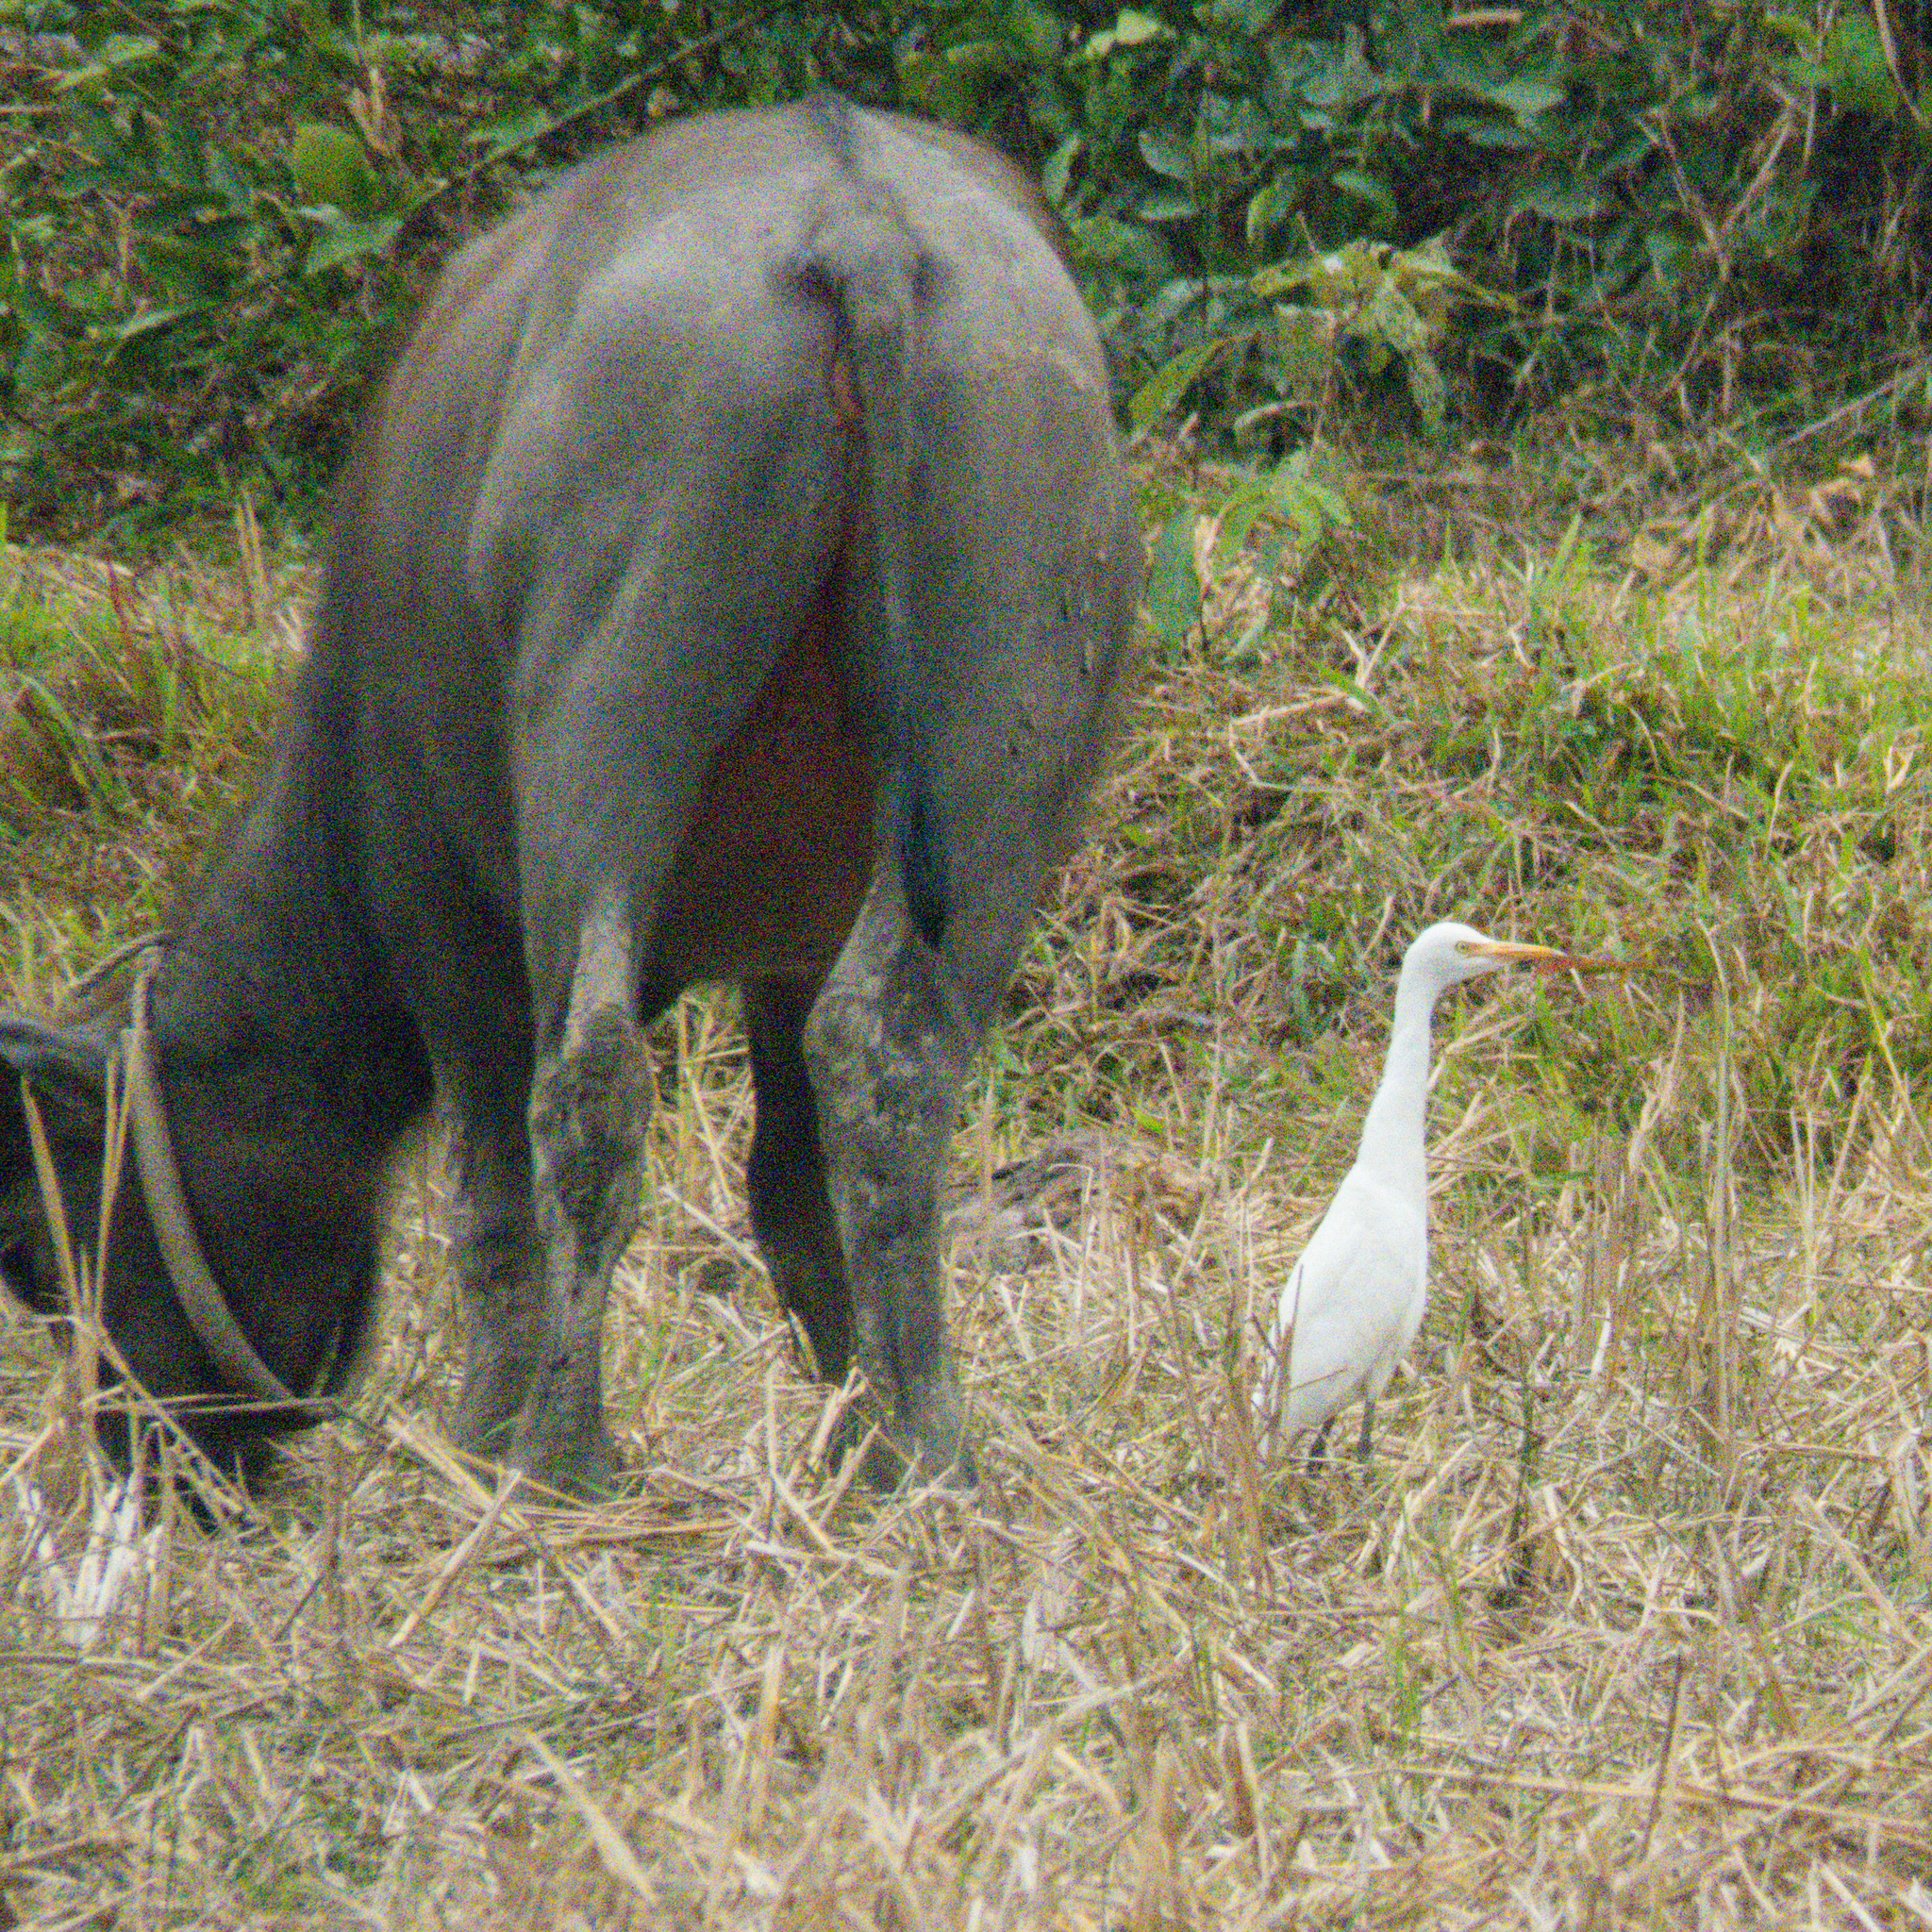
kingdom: Animalia
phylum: Chordata
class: Aves
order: Pelecaniformes
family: Ardeidae
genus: Bubulcus
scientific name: Bubulcus coromandus
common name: Eastern cattle egret
